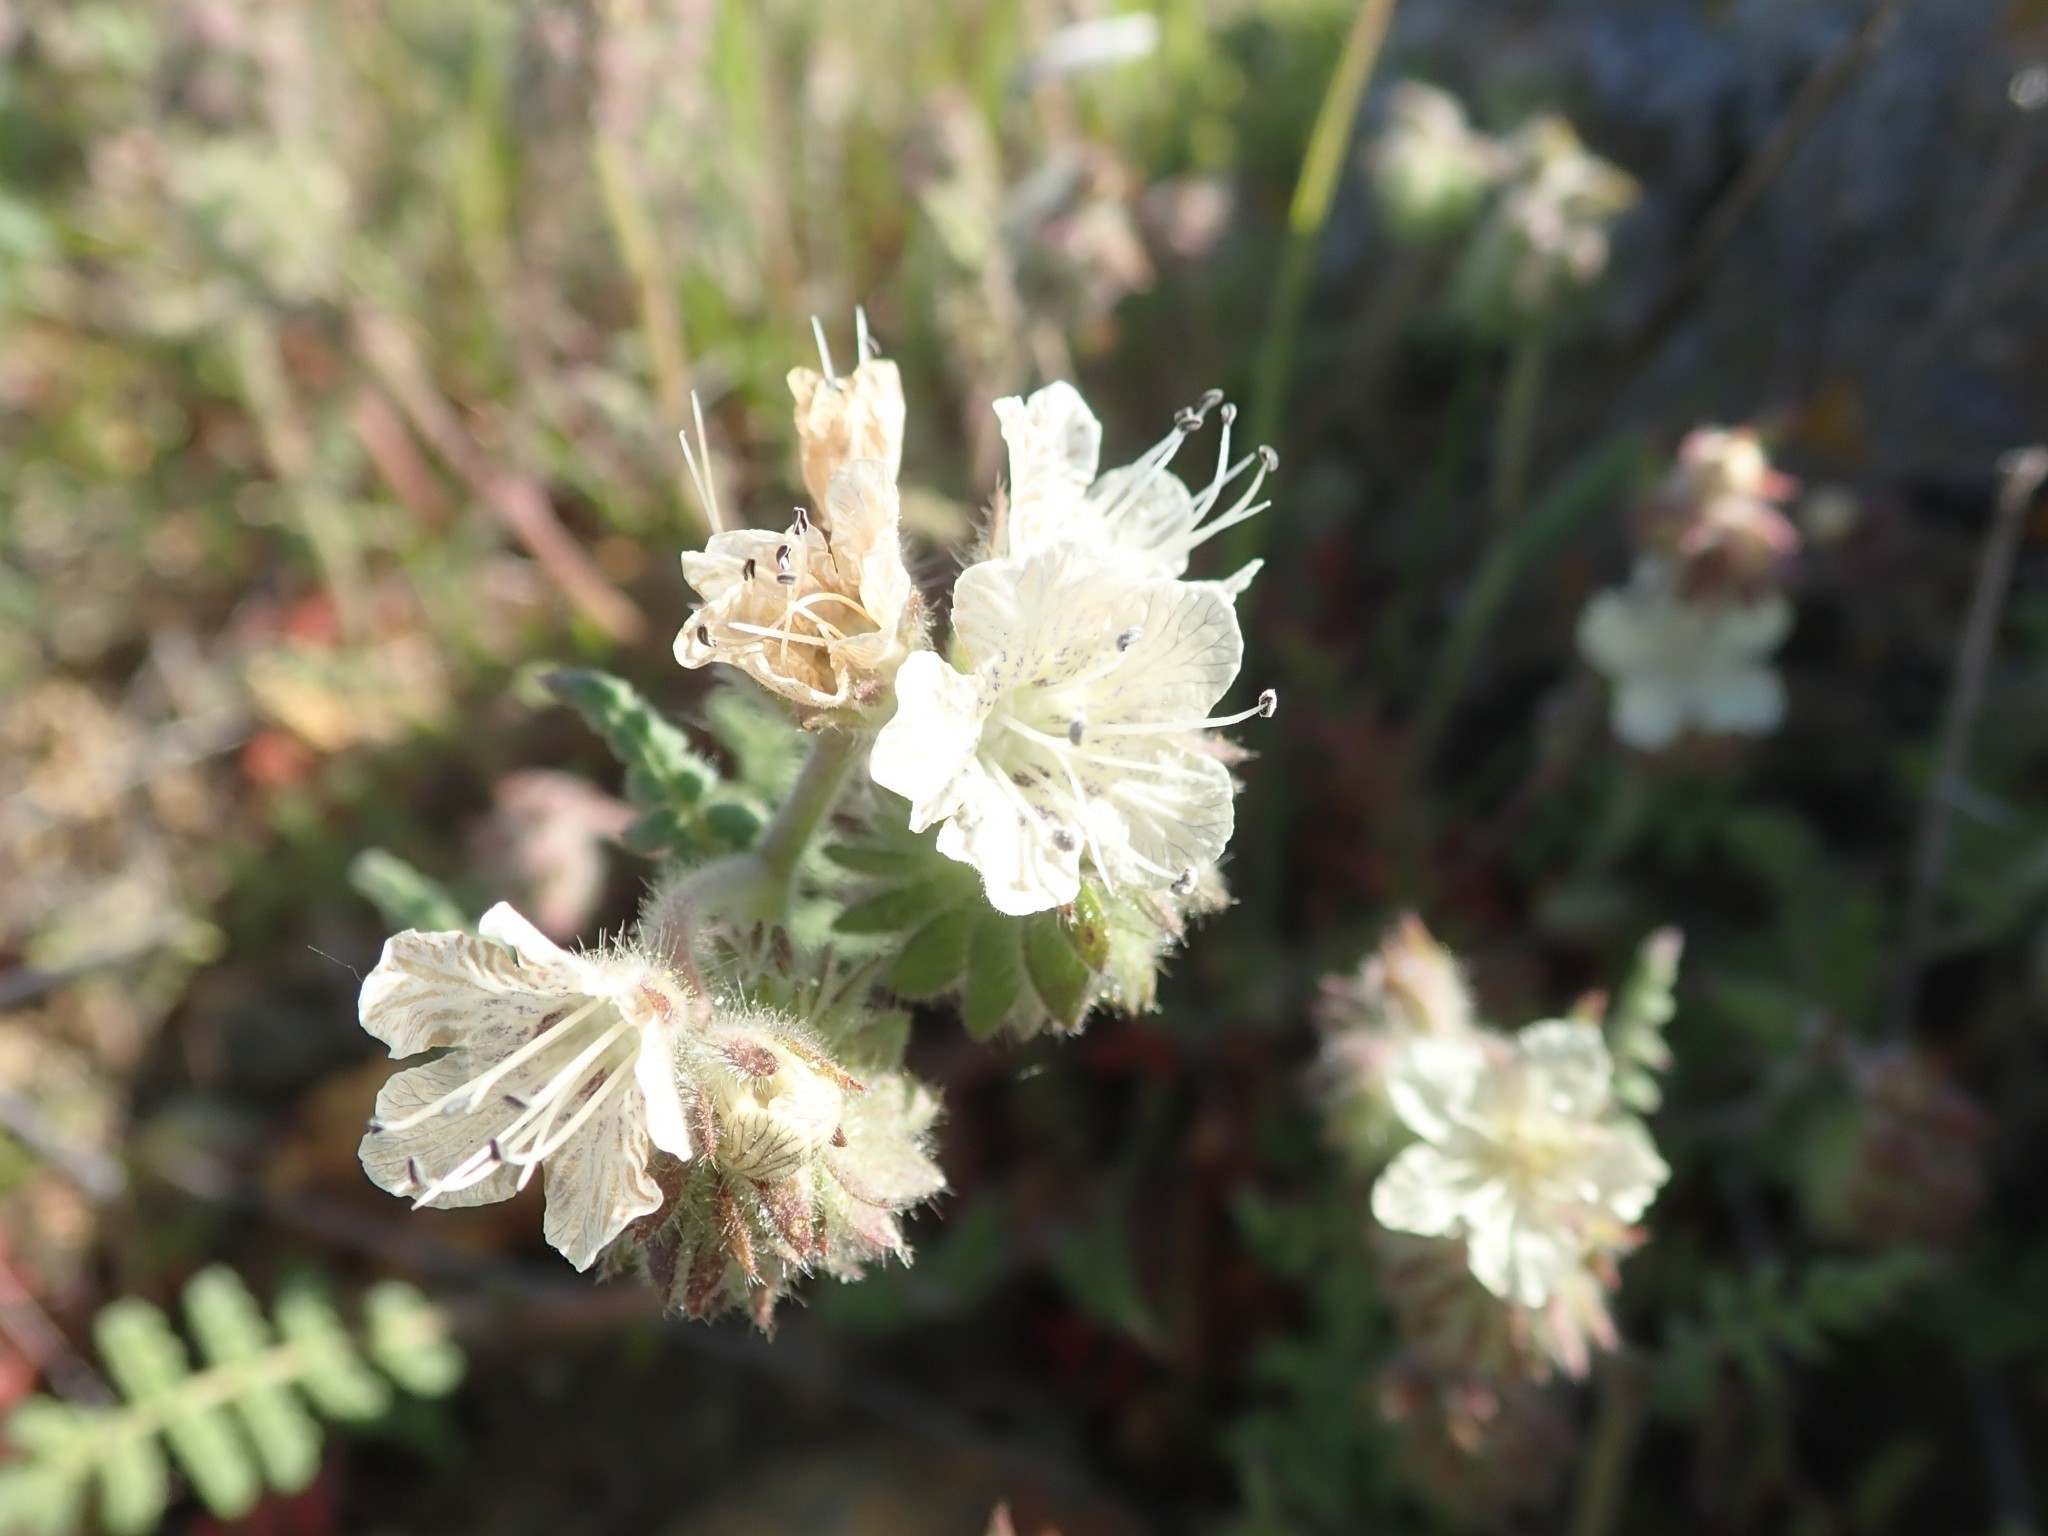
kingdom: Plantae
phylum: Tracheophyta
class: Magnoliopsida
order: Boraginales
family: Hydrophyllaceae
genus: Phacelia
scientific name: Phacelia distans
